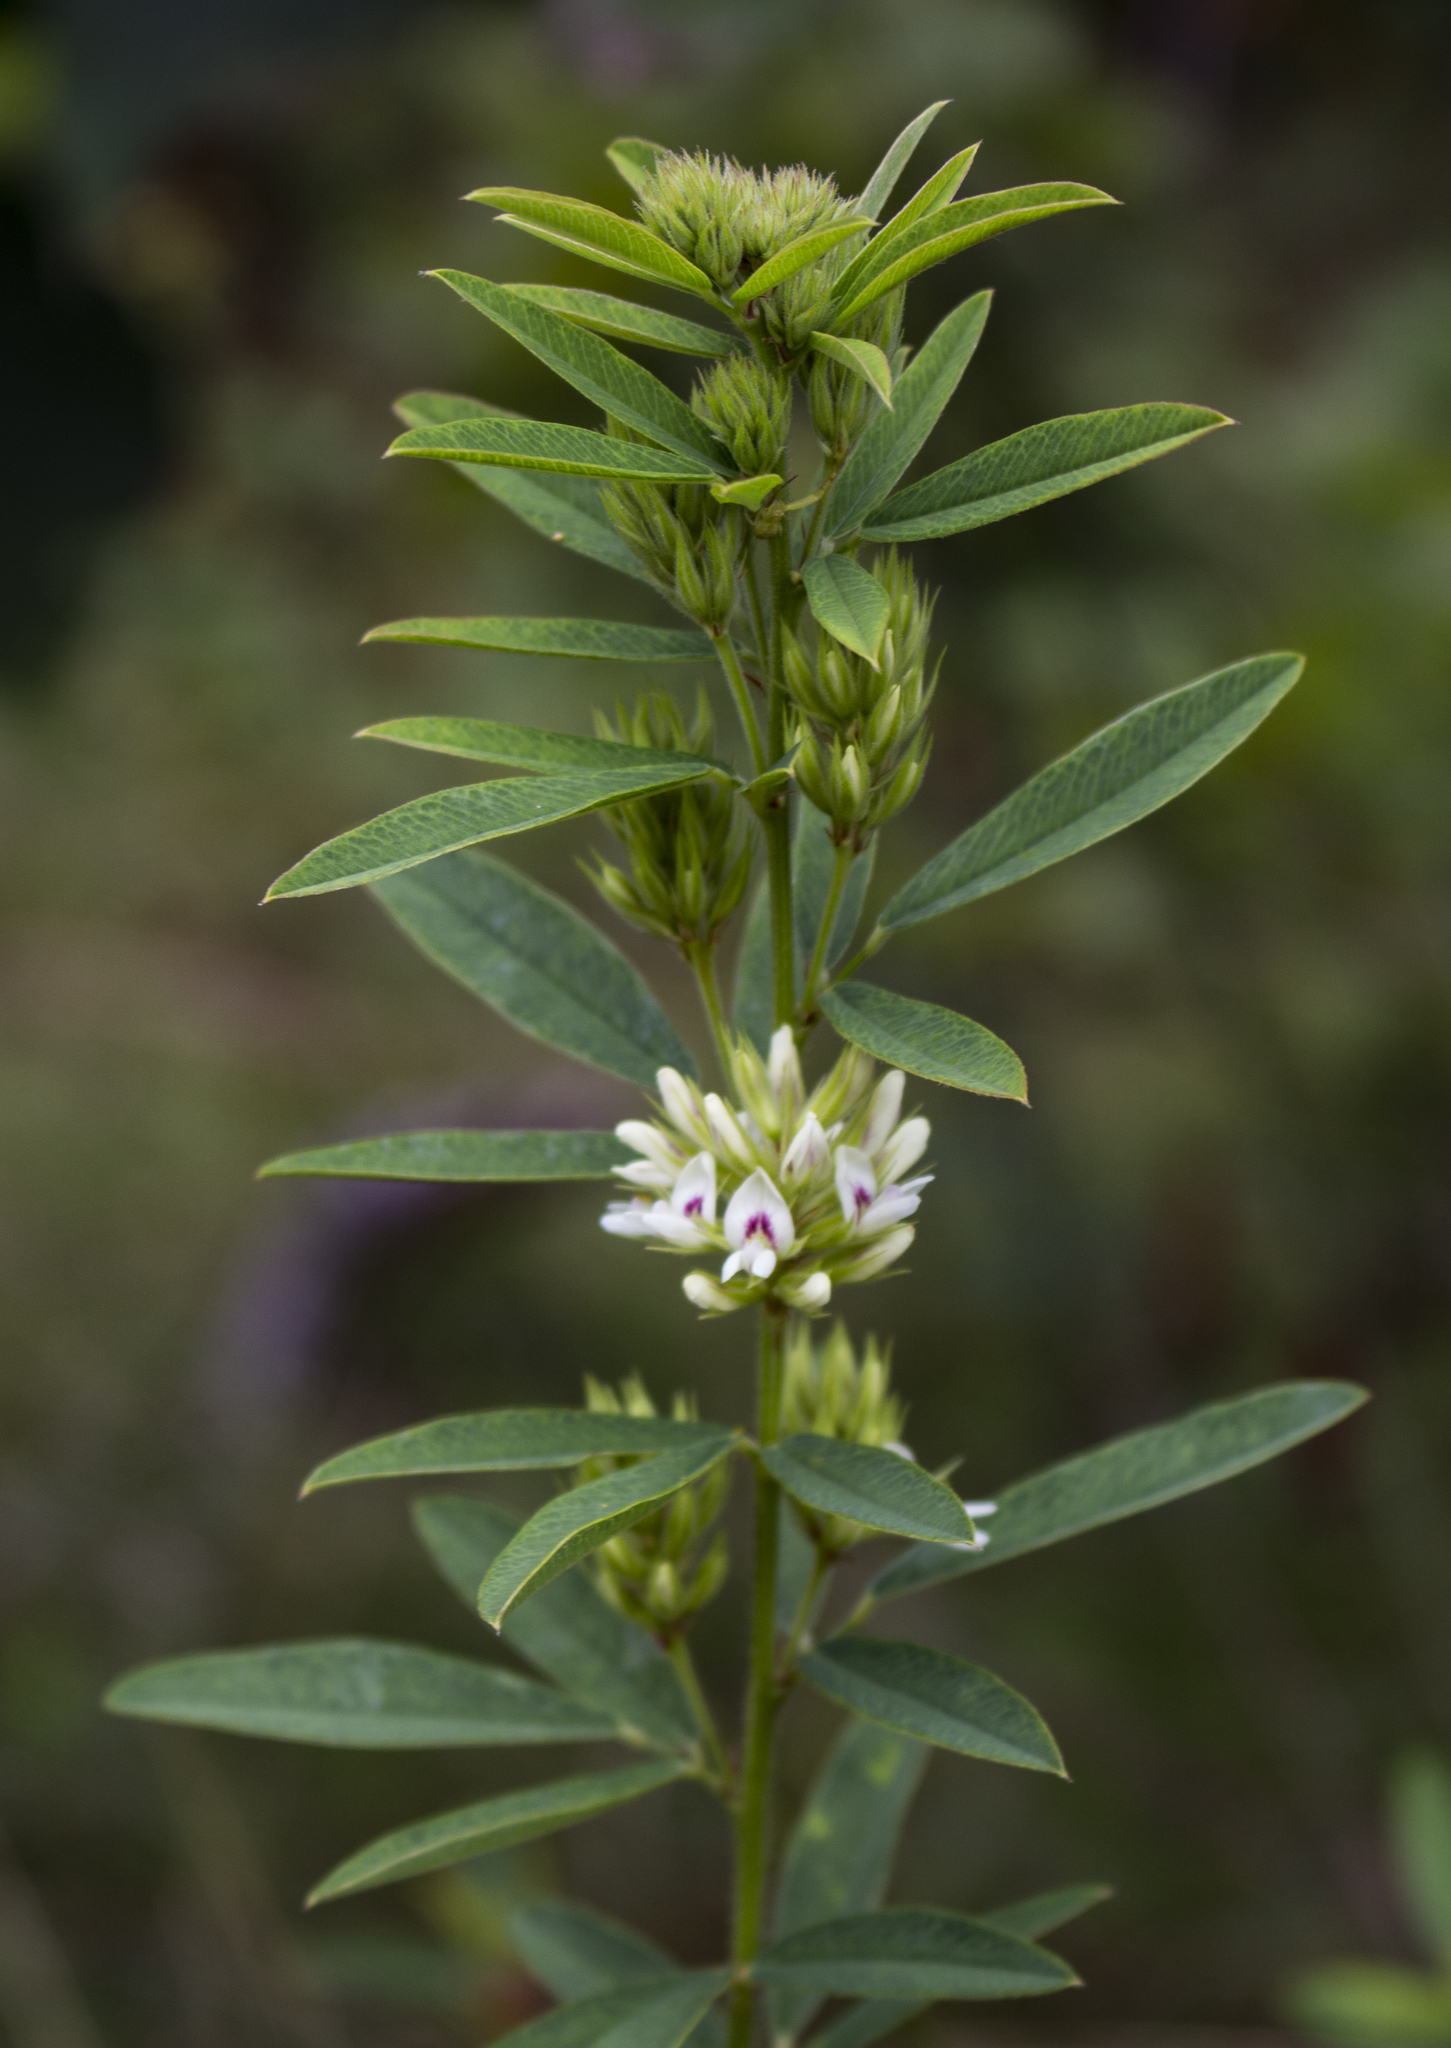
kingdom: Plantae
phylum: Tracheophyta
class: Magnoliopsida
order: Fabales
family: Fabaceae
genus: Lespedeza
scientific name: Lespedeza capitata
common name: Dusty clover
